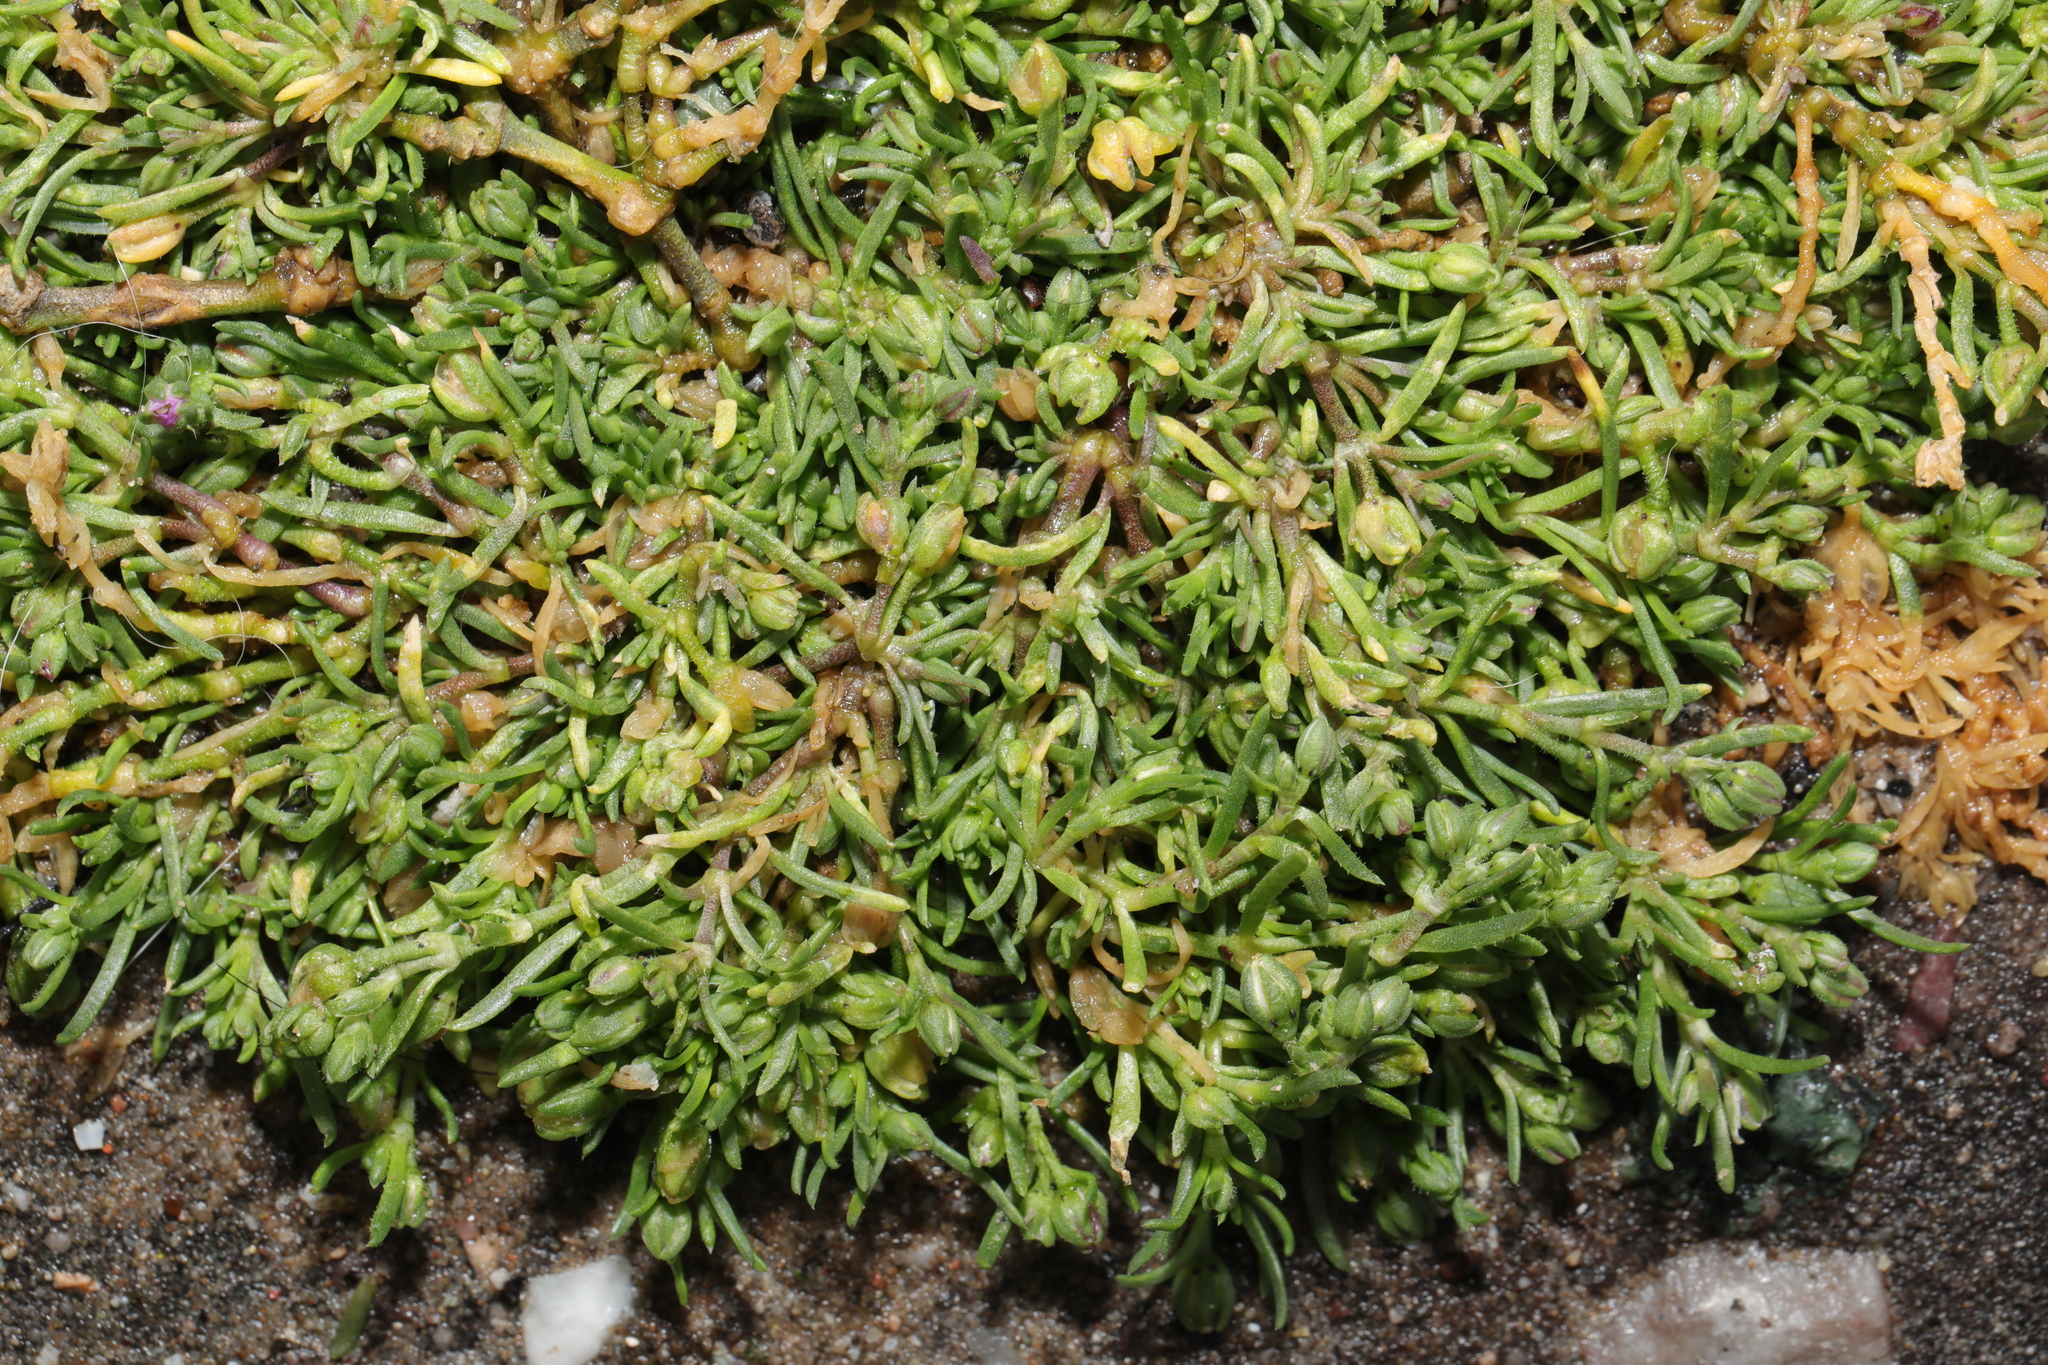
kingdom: Plantae
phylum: Tracheophyta
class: Magnoliopsida
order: Caryophyllales
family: Caryophyllaceae
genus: Spergularia
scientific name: Spergularia marina
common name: Lesser sea-spurrey
